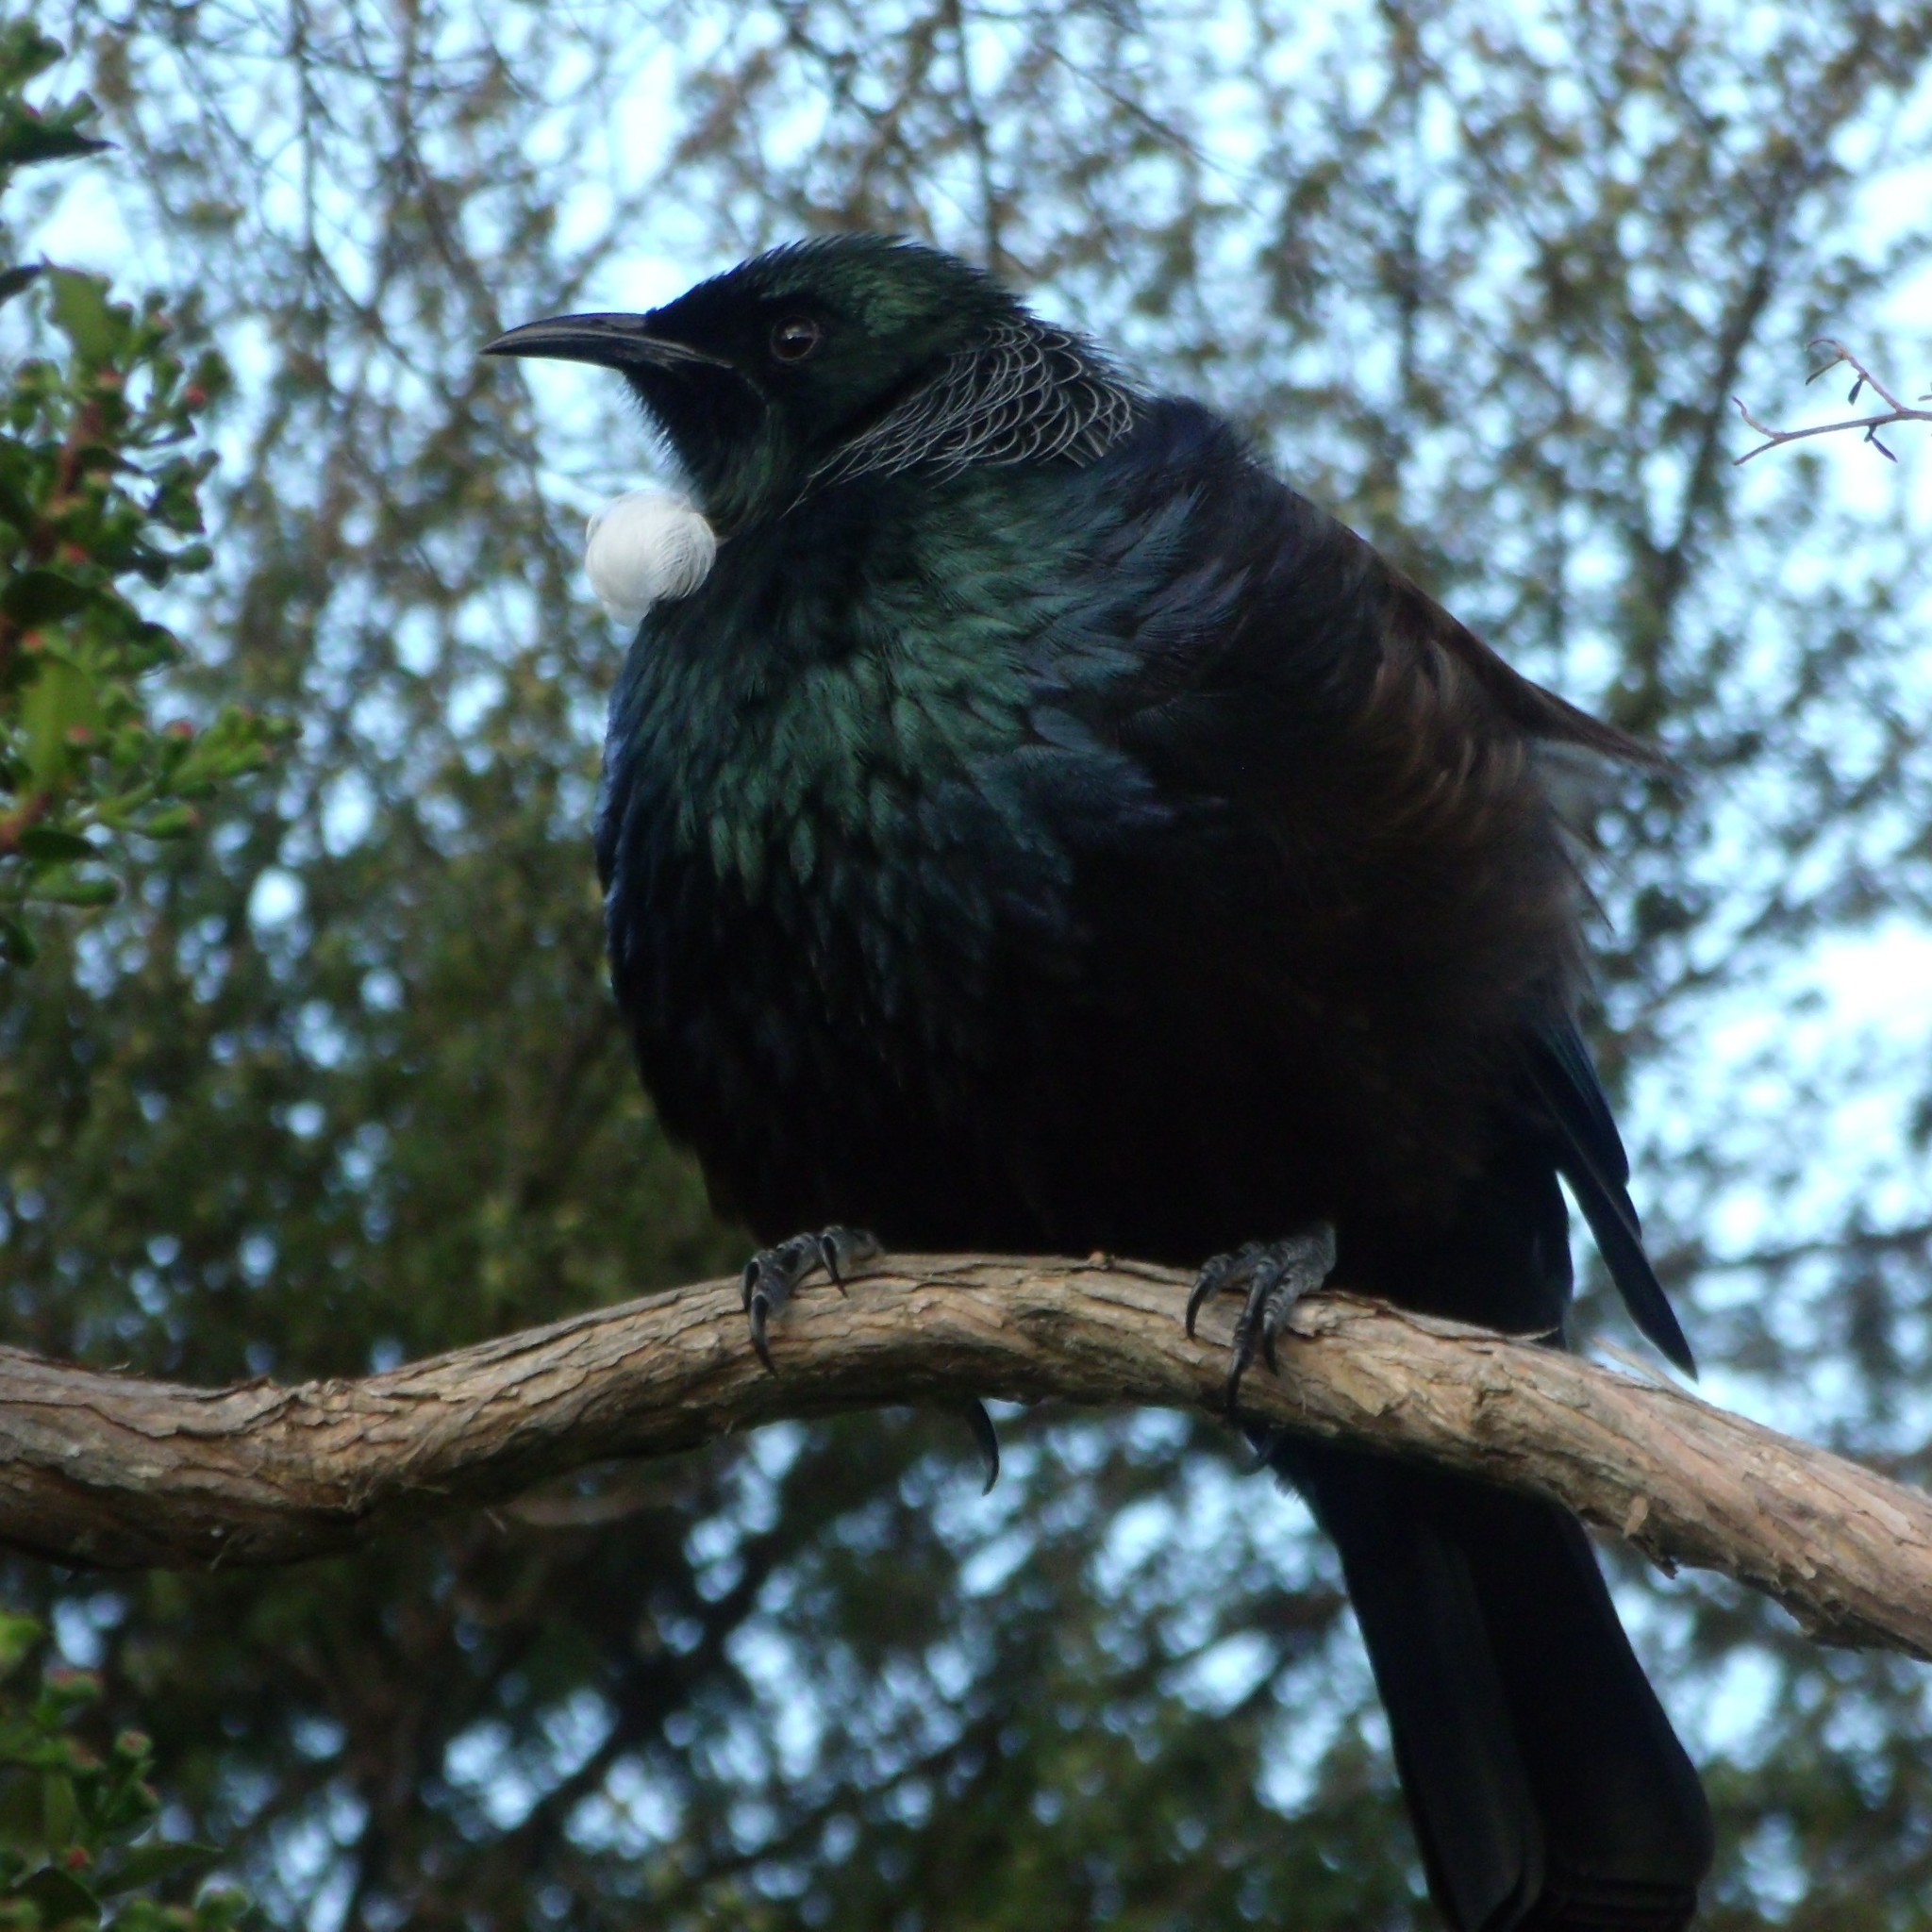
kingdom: Animalia
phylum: Chordata
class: Aves
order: Passeriformes
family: Meliphagidae
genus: Prosthemadera
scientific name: Prosthemadera novaeseelandiae
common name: Tui
